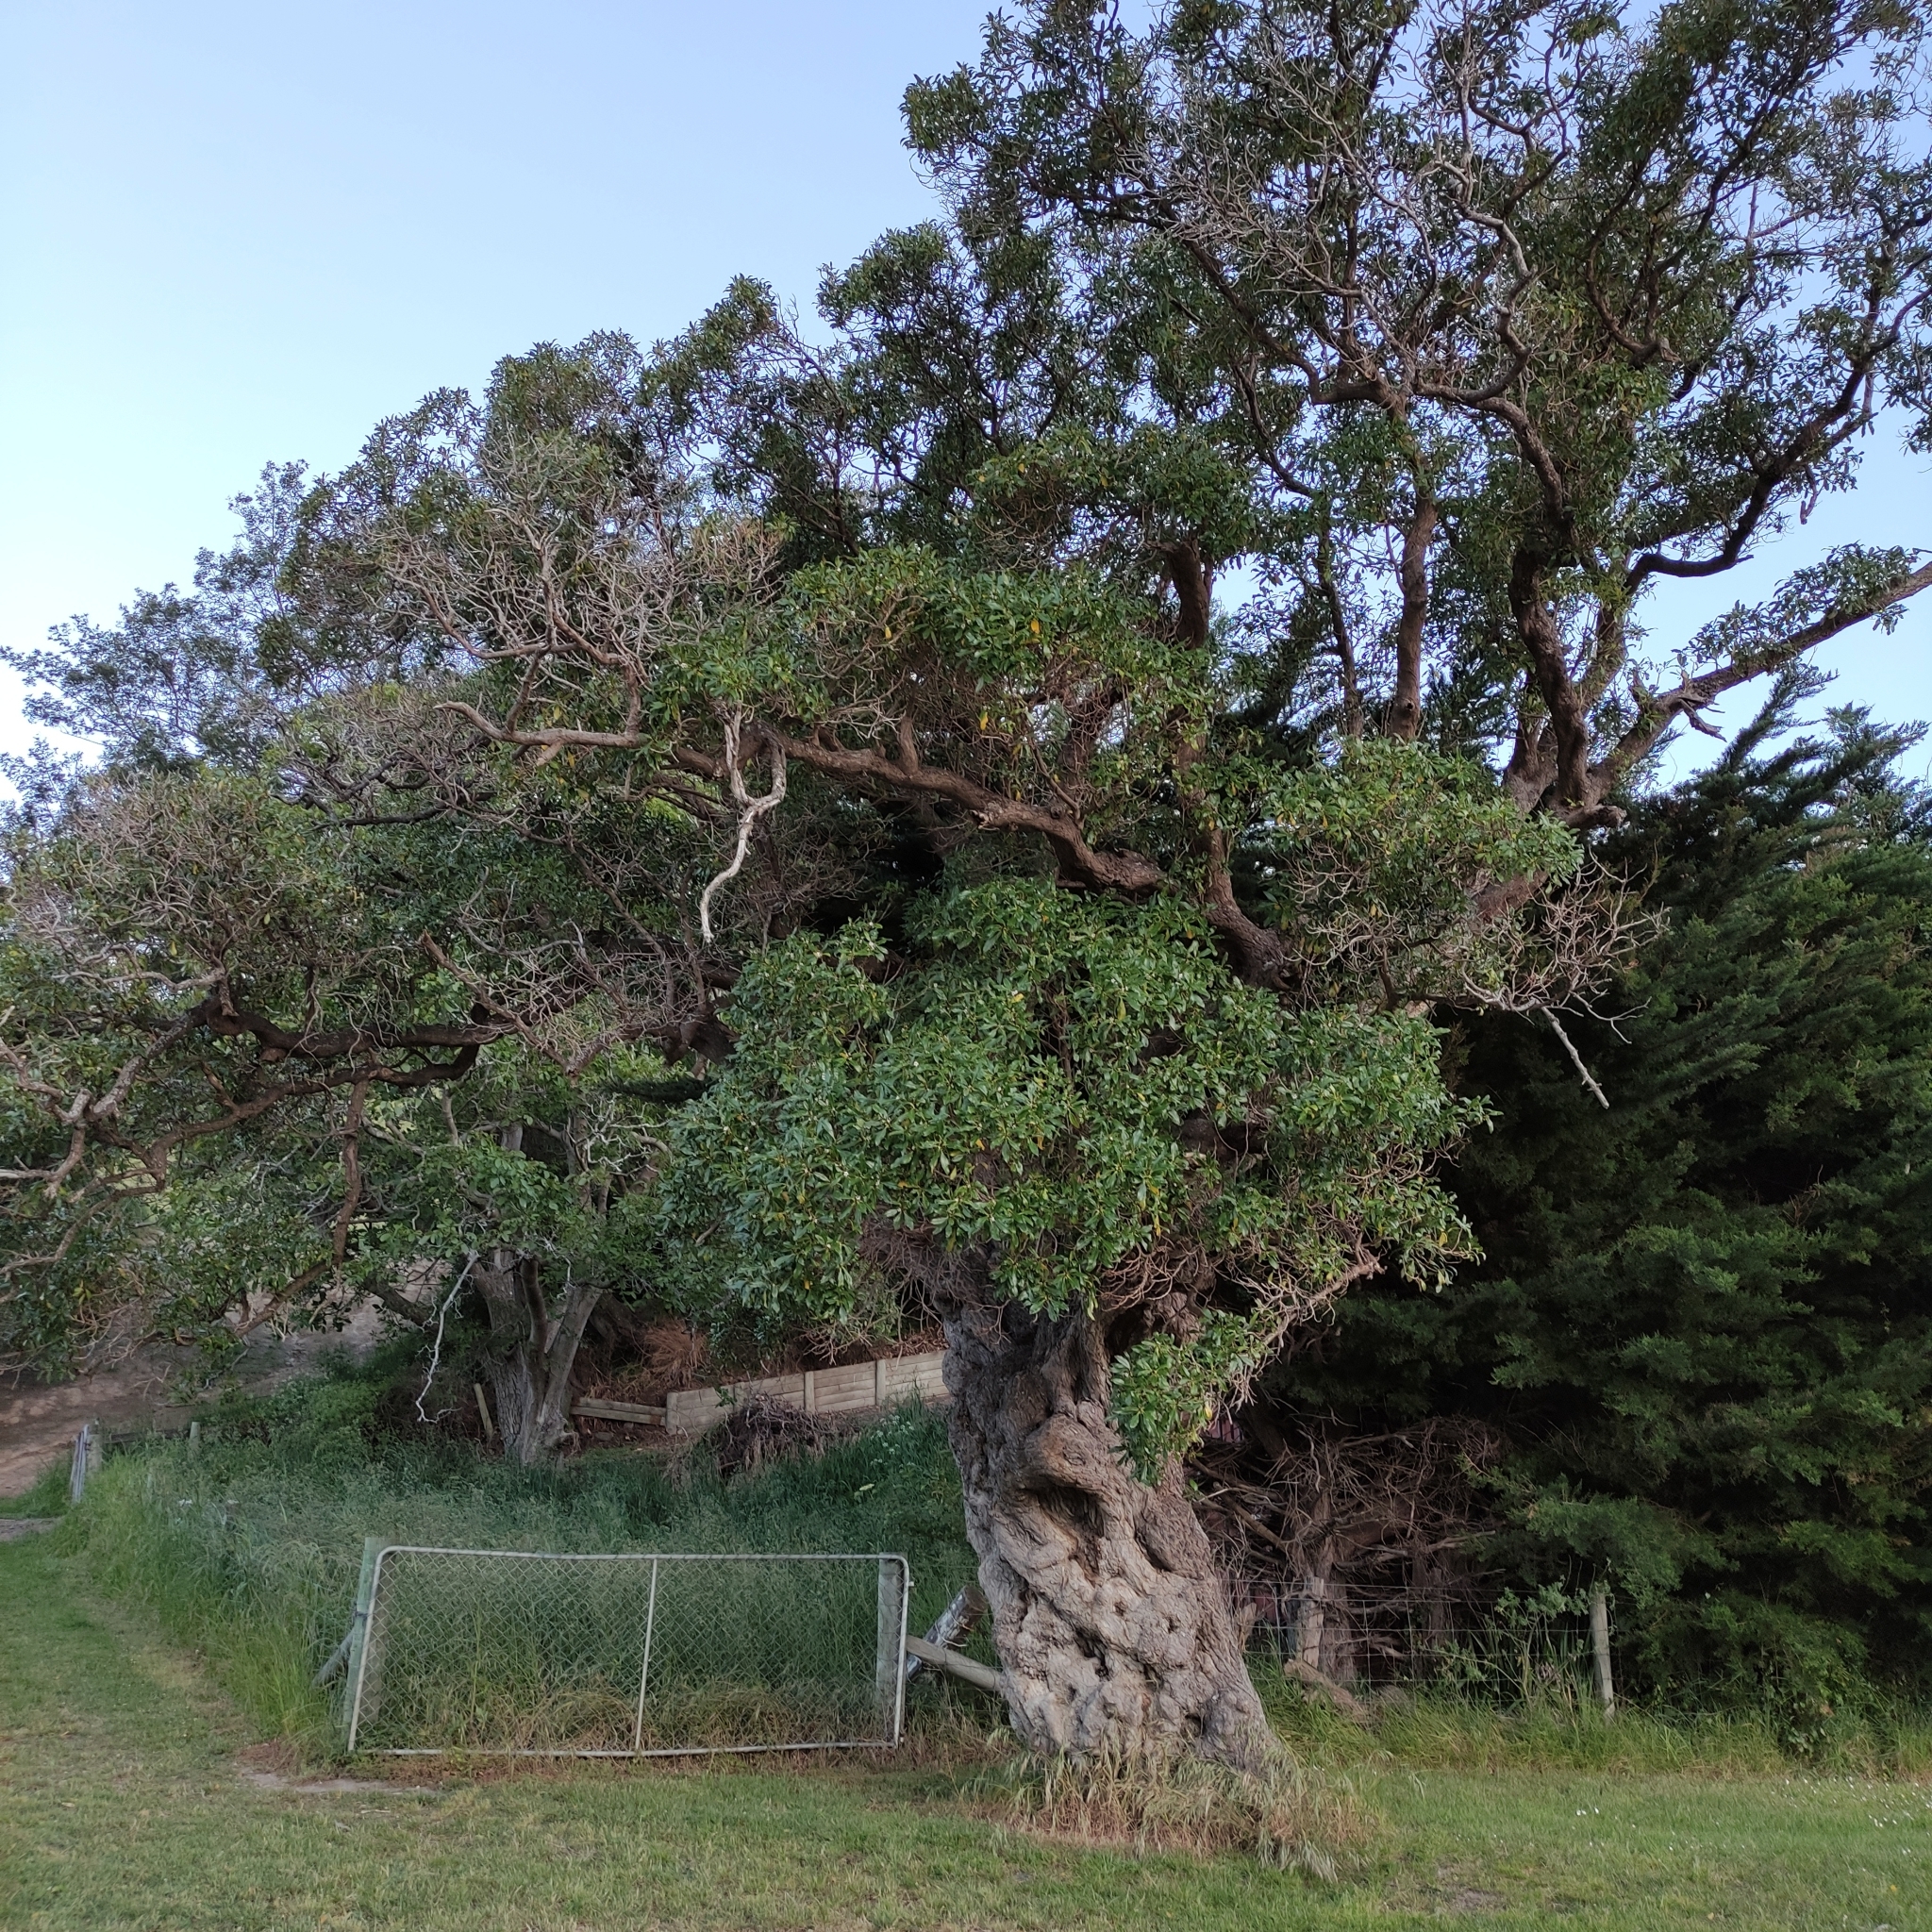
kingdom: Plantae
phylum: Tracheophyta
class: Magnoliopsida
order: Lamiales
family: Scrophulariaceae
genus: Myoporum
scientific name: Myoporum laetum
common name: Ngaio tree
